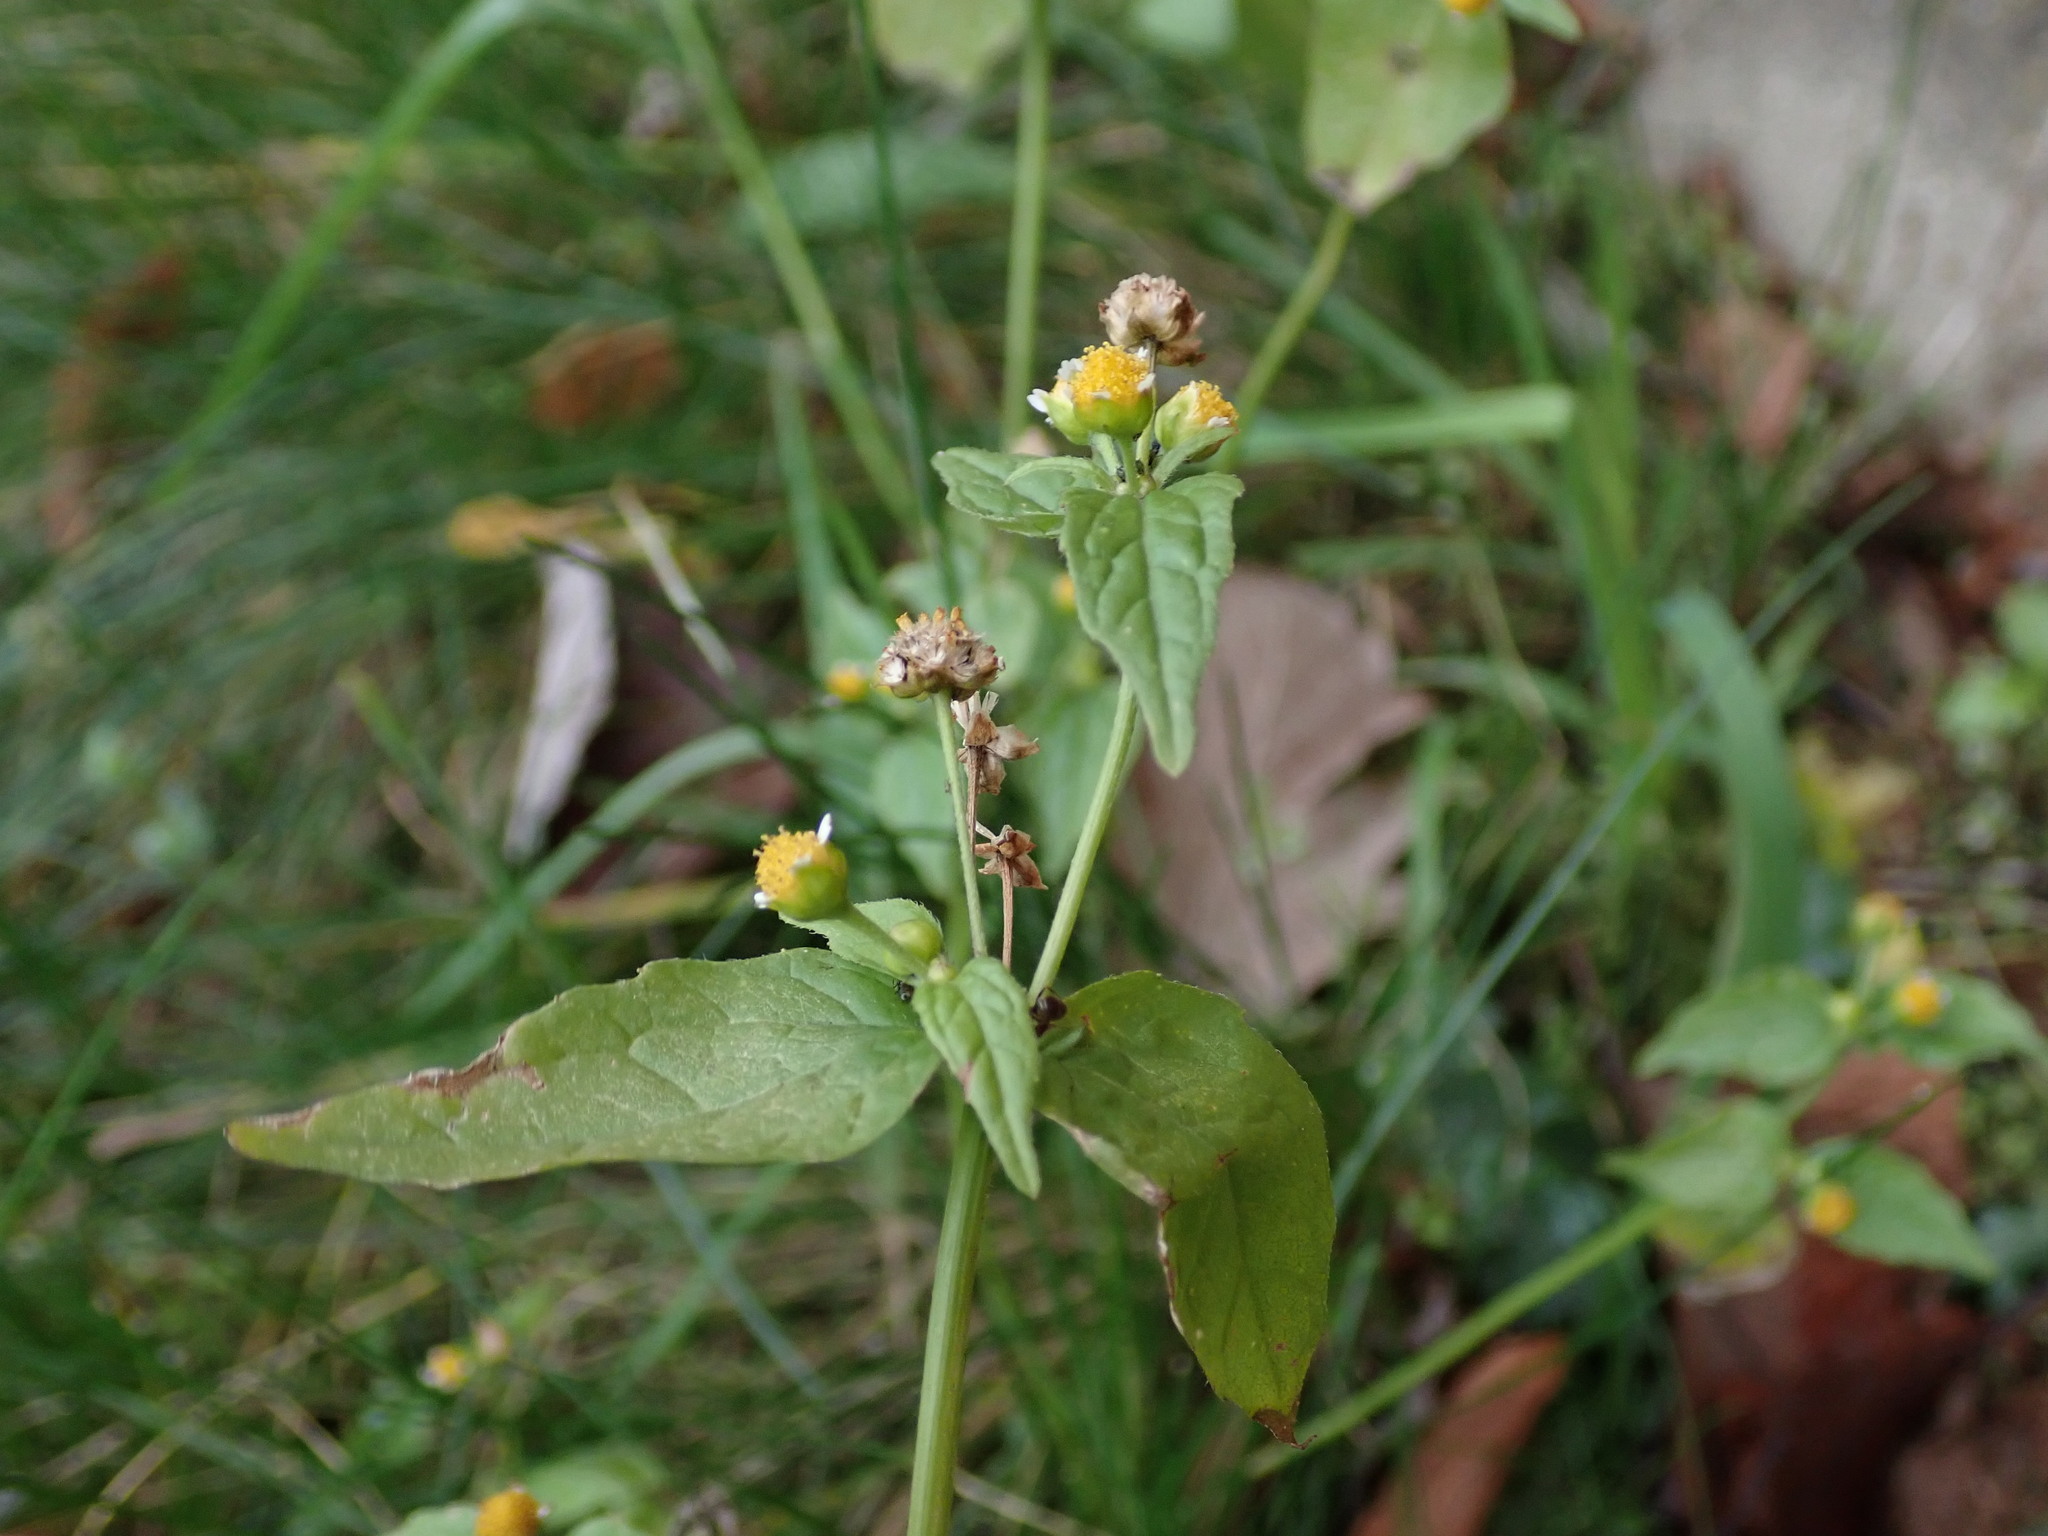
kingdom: Plantae
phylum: Tracheophyta
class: Magnoliopsida
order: Asterales
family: Asteraceae
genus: Galinsoga
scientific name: Galinsoga parviflora
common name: Gallant soldier
